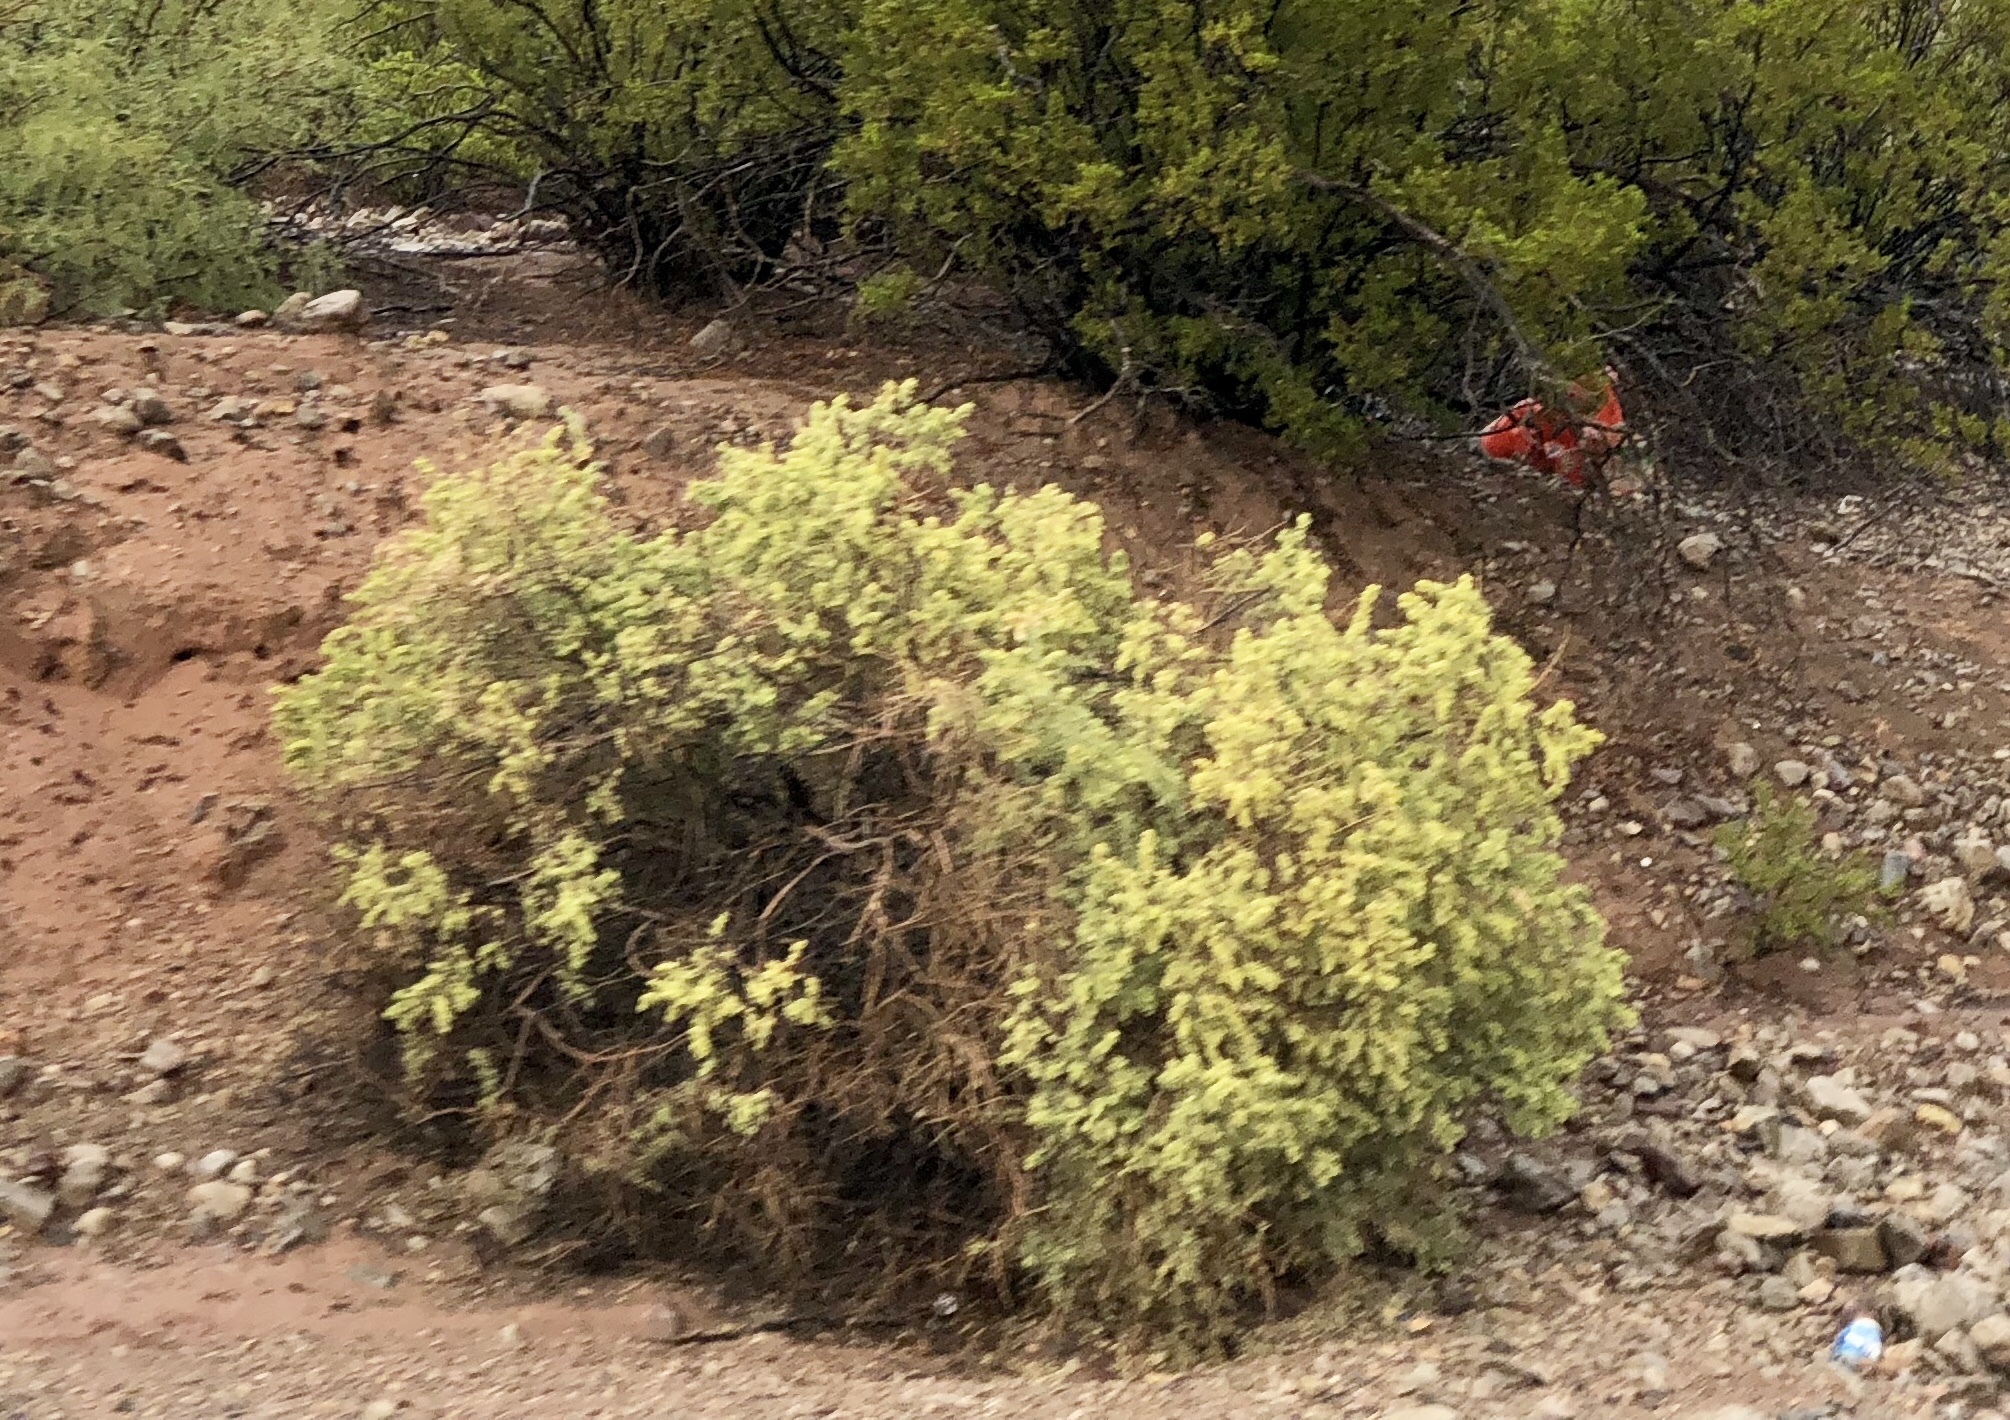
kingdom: Plantae
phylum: Tracheophyta
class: Magnoliopsida
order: Caryophyllales
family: Amaranthaceae
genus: Atriplex
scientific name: Atriplex canescens
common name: Four-wing saltbush
